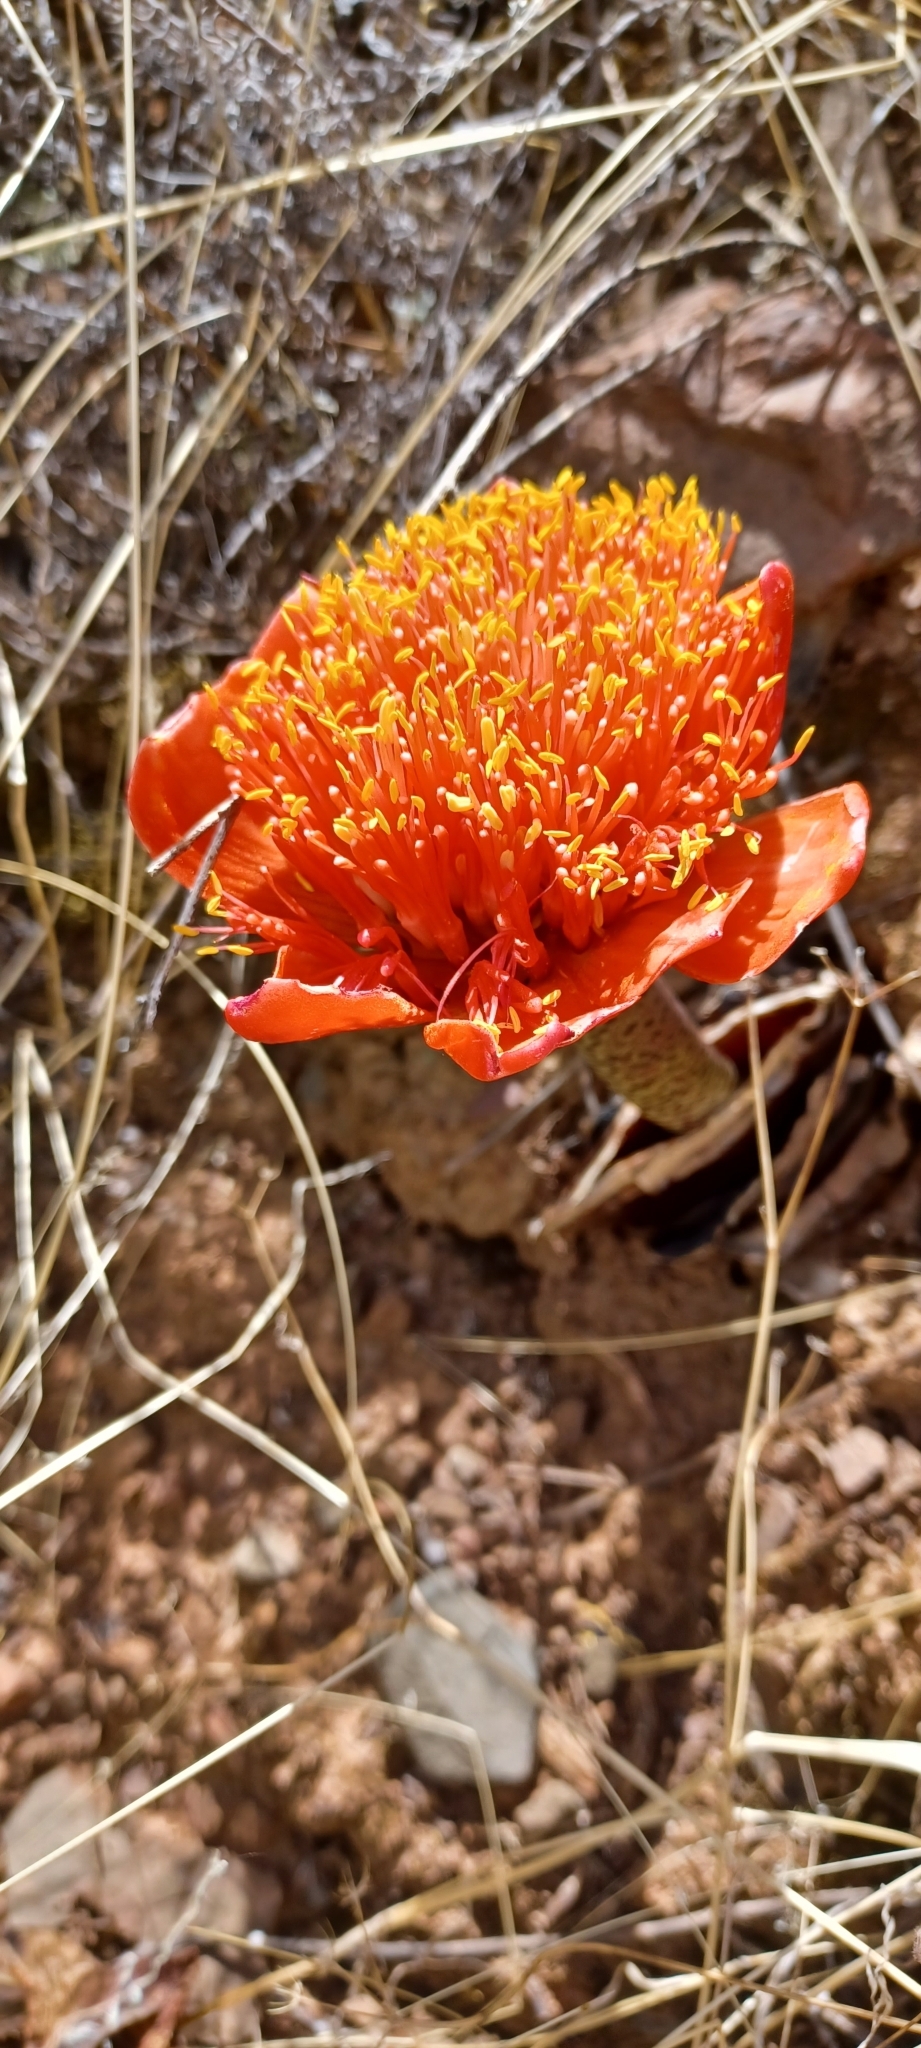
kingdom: Plantae
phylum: Tracheophyta
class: Liliopsida
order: Asparagales
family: Amaryllidaceae
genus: Haemanthus
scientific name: Haemanthus coccineus
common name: Cape-tulip
